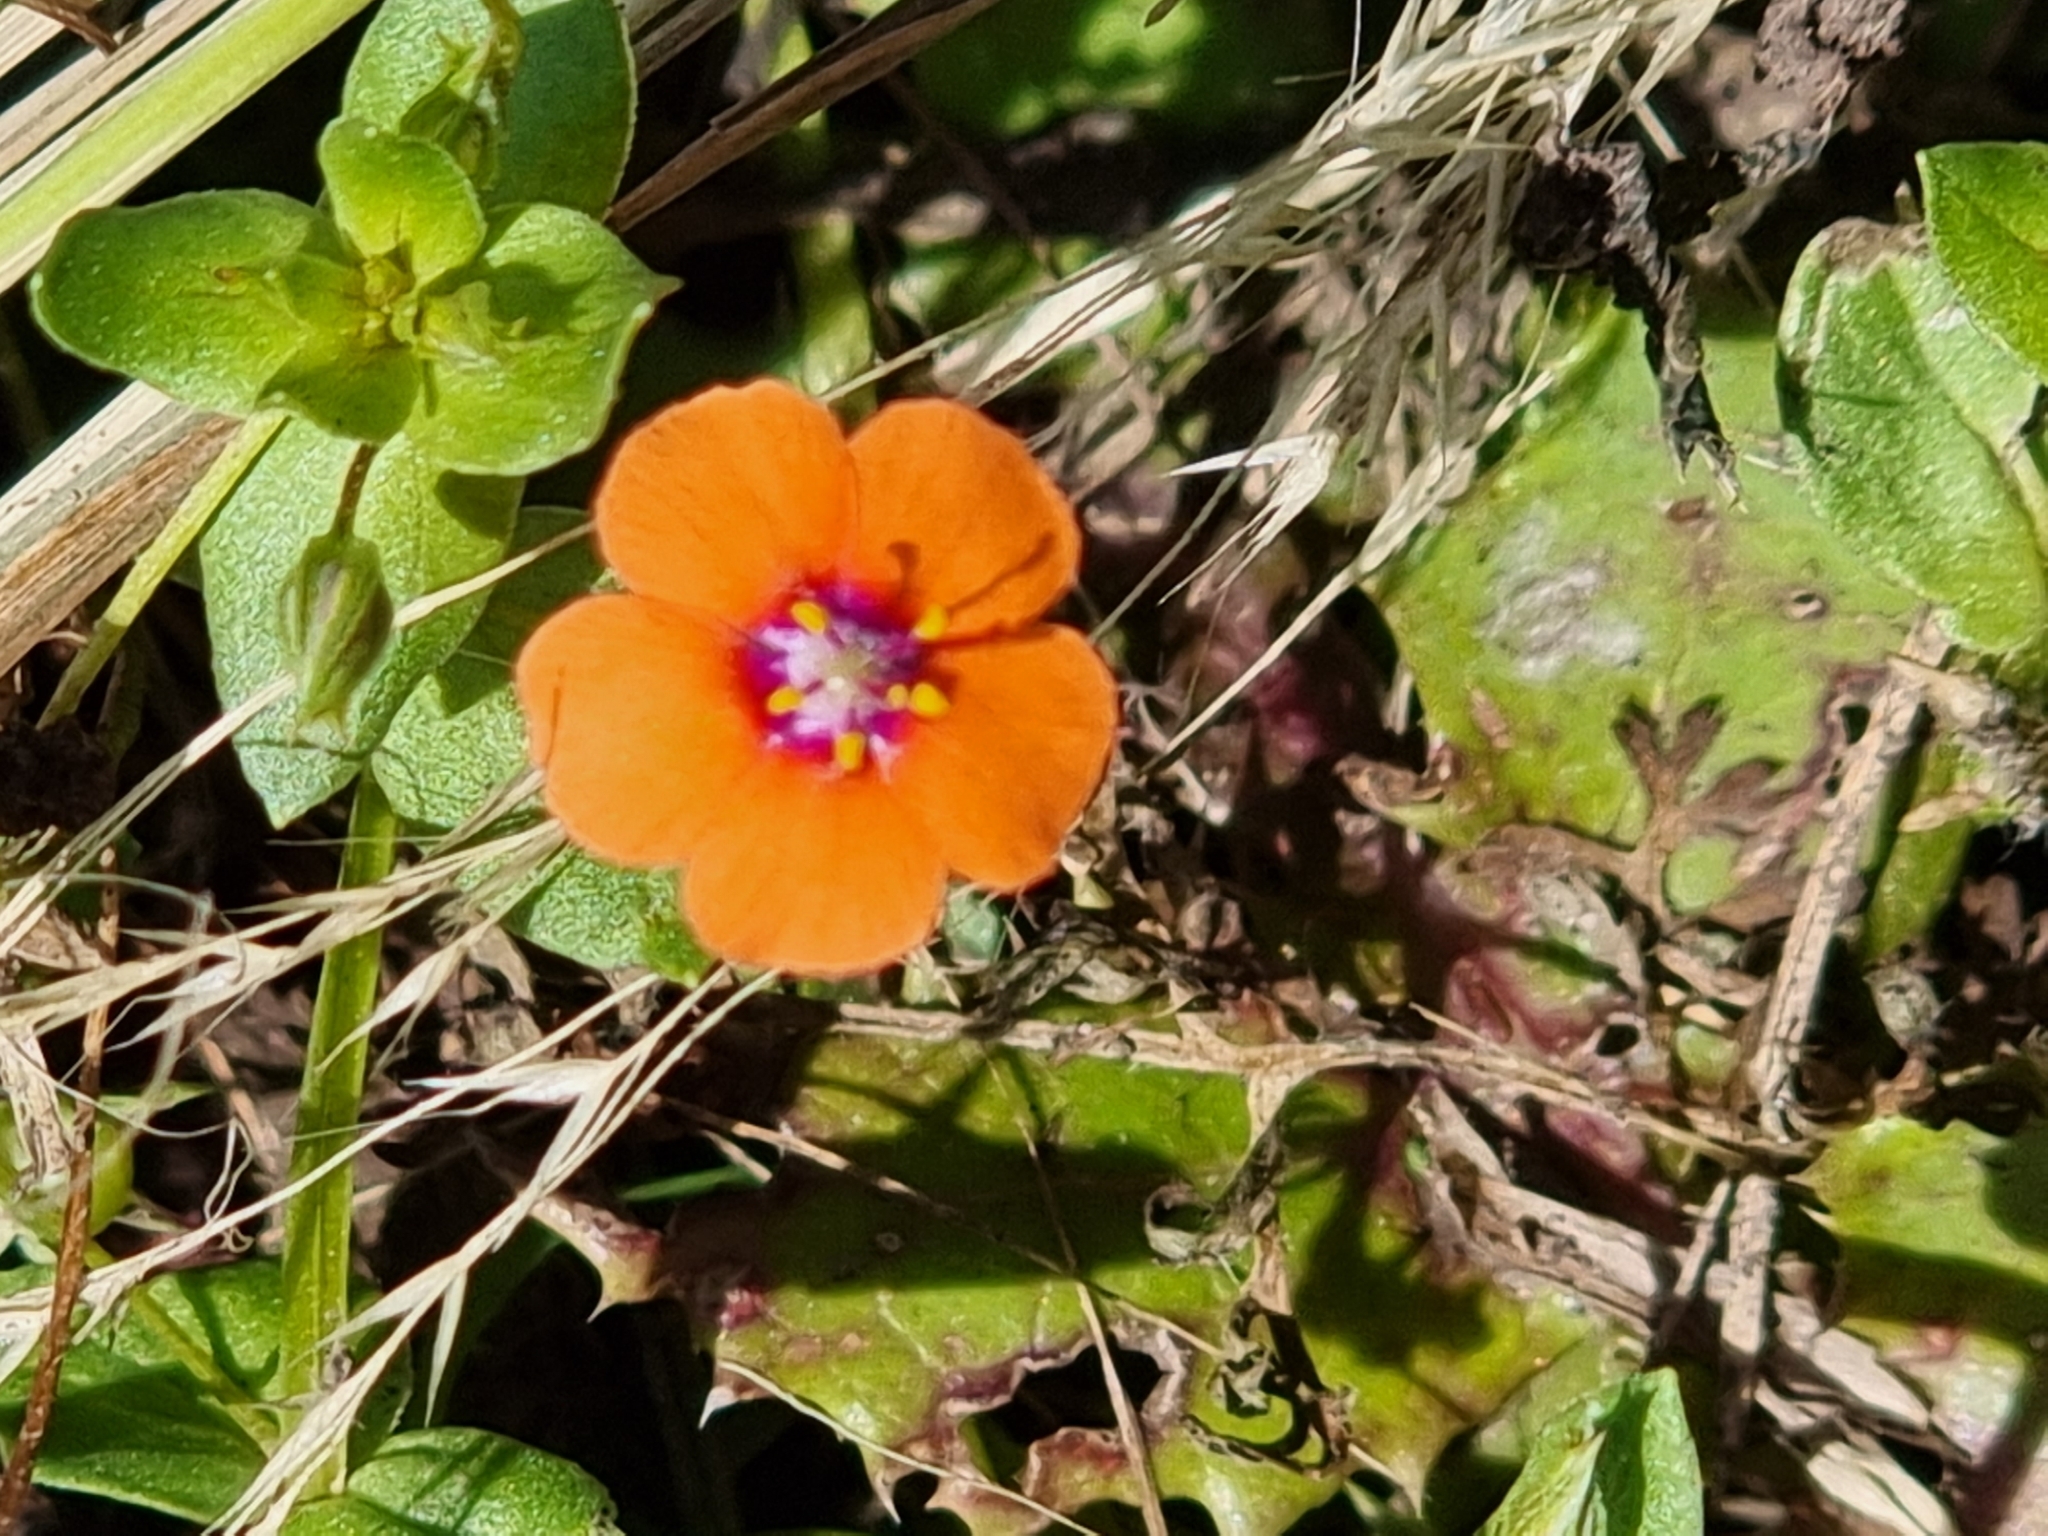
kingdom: Plantae
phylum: Tracheophyta
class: Magnoliopsida
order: Ericales
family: Primulaceae
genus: Lysimachia
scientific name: Lysimachia arvensis
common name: Scarlet pimpernel
